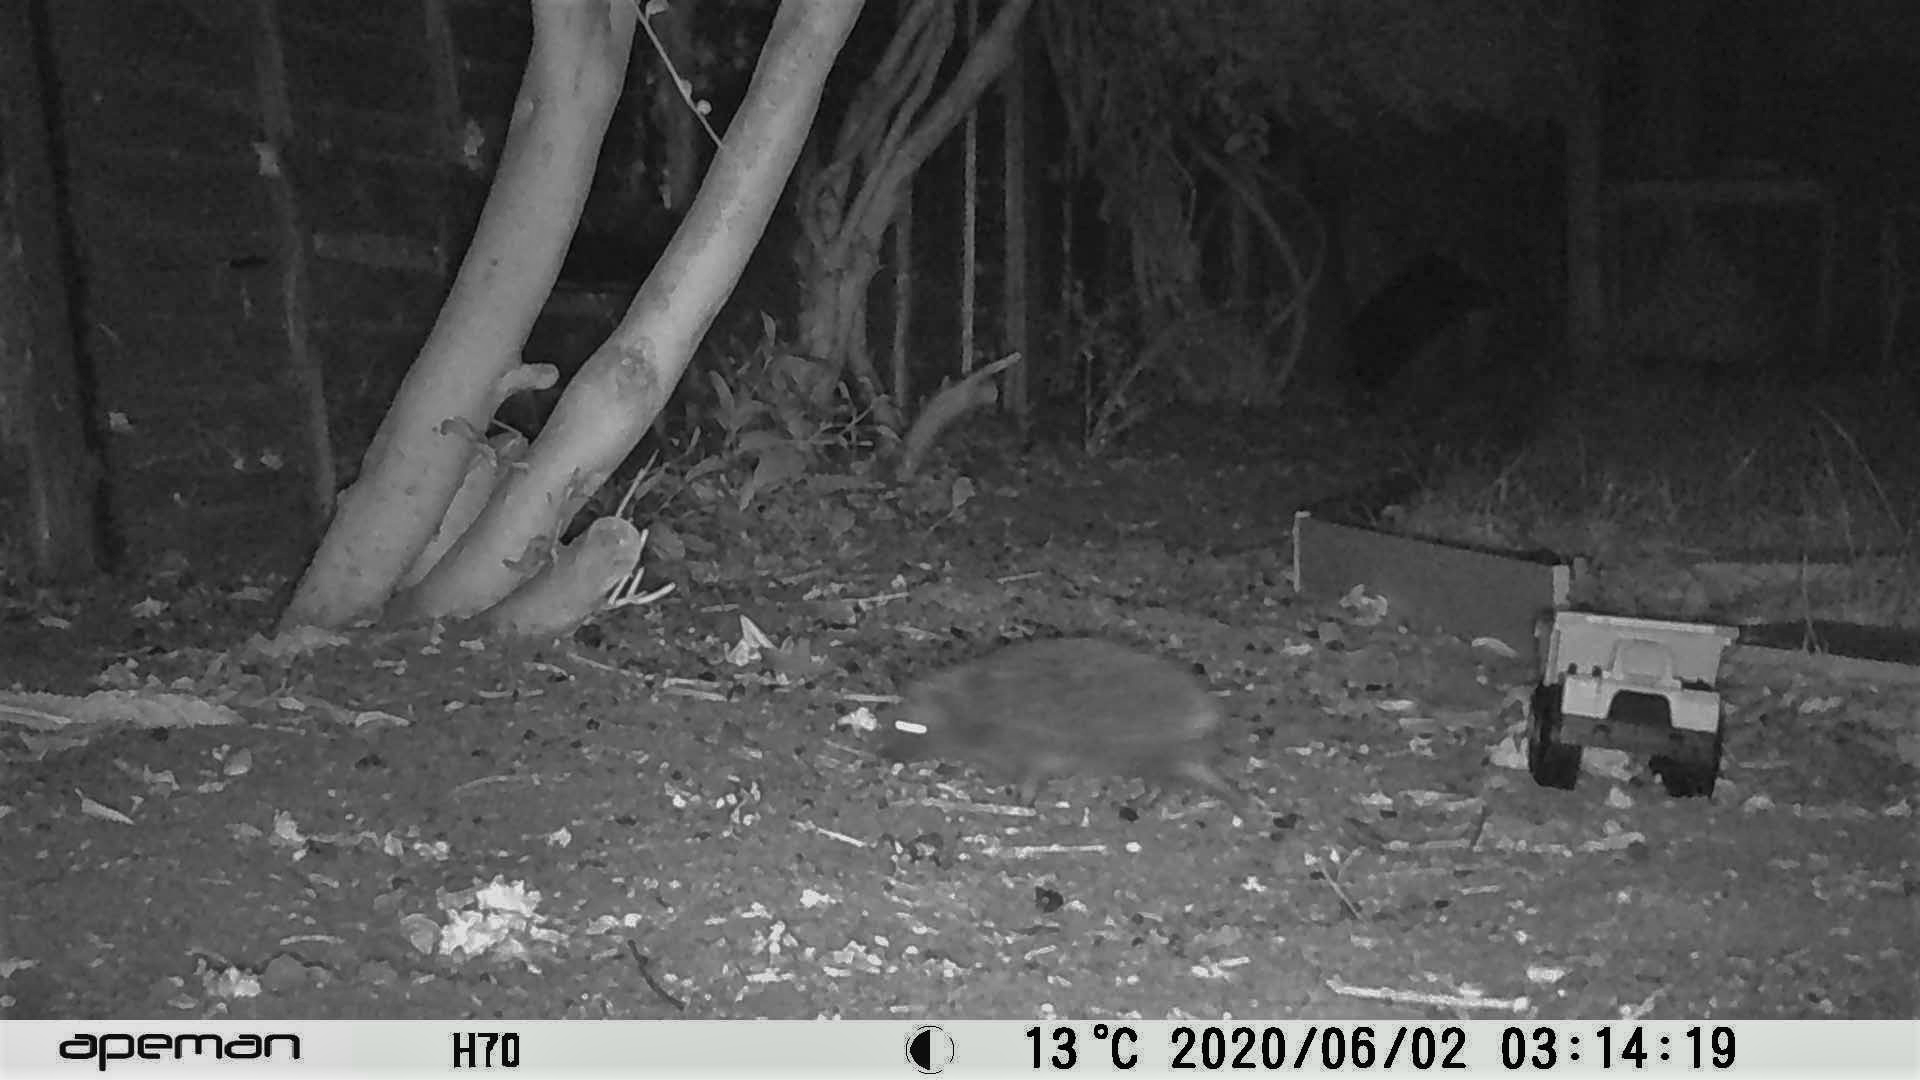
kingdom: Animalia
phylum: Chordata
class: Mammalia
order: Erinaceomorpha
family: Erinaceidae
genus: Erinaceus
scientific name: Erinaceus europaeus
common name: West european hedgehog
